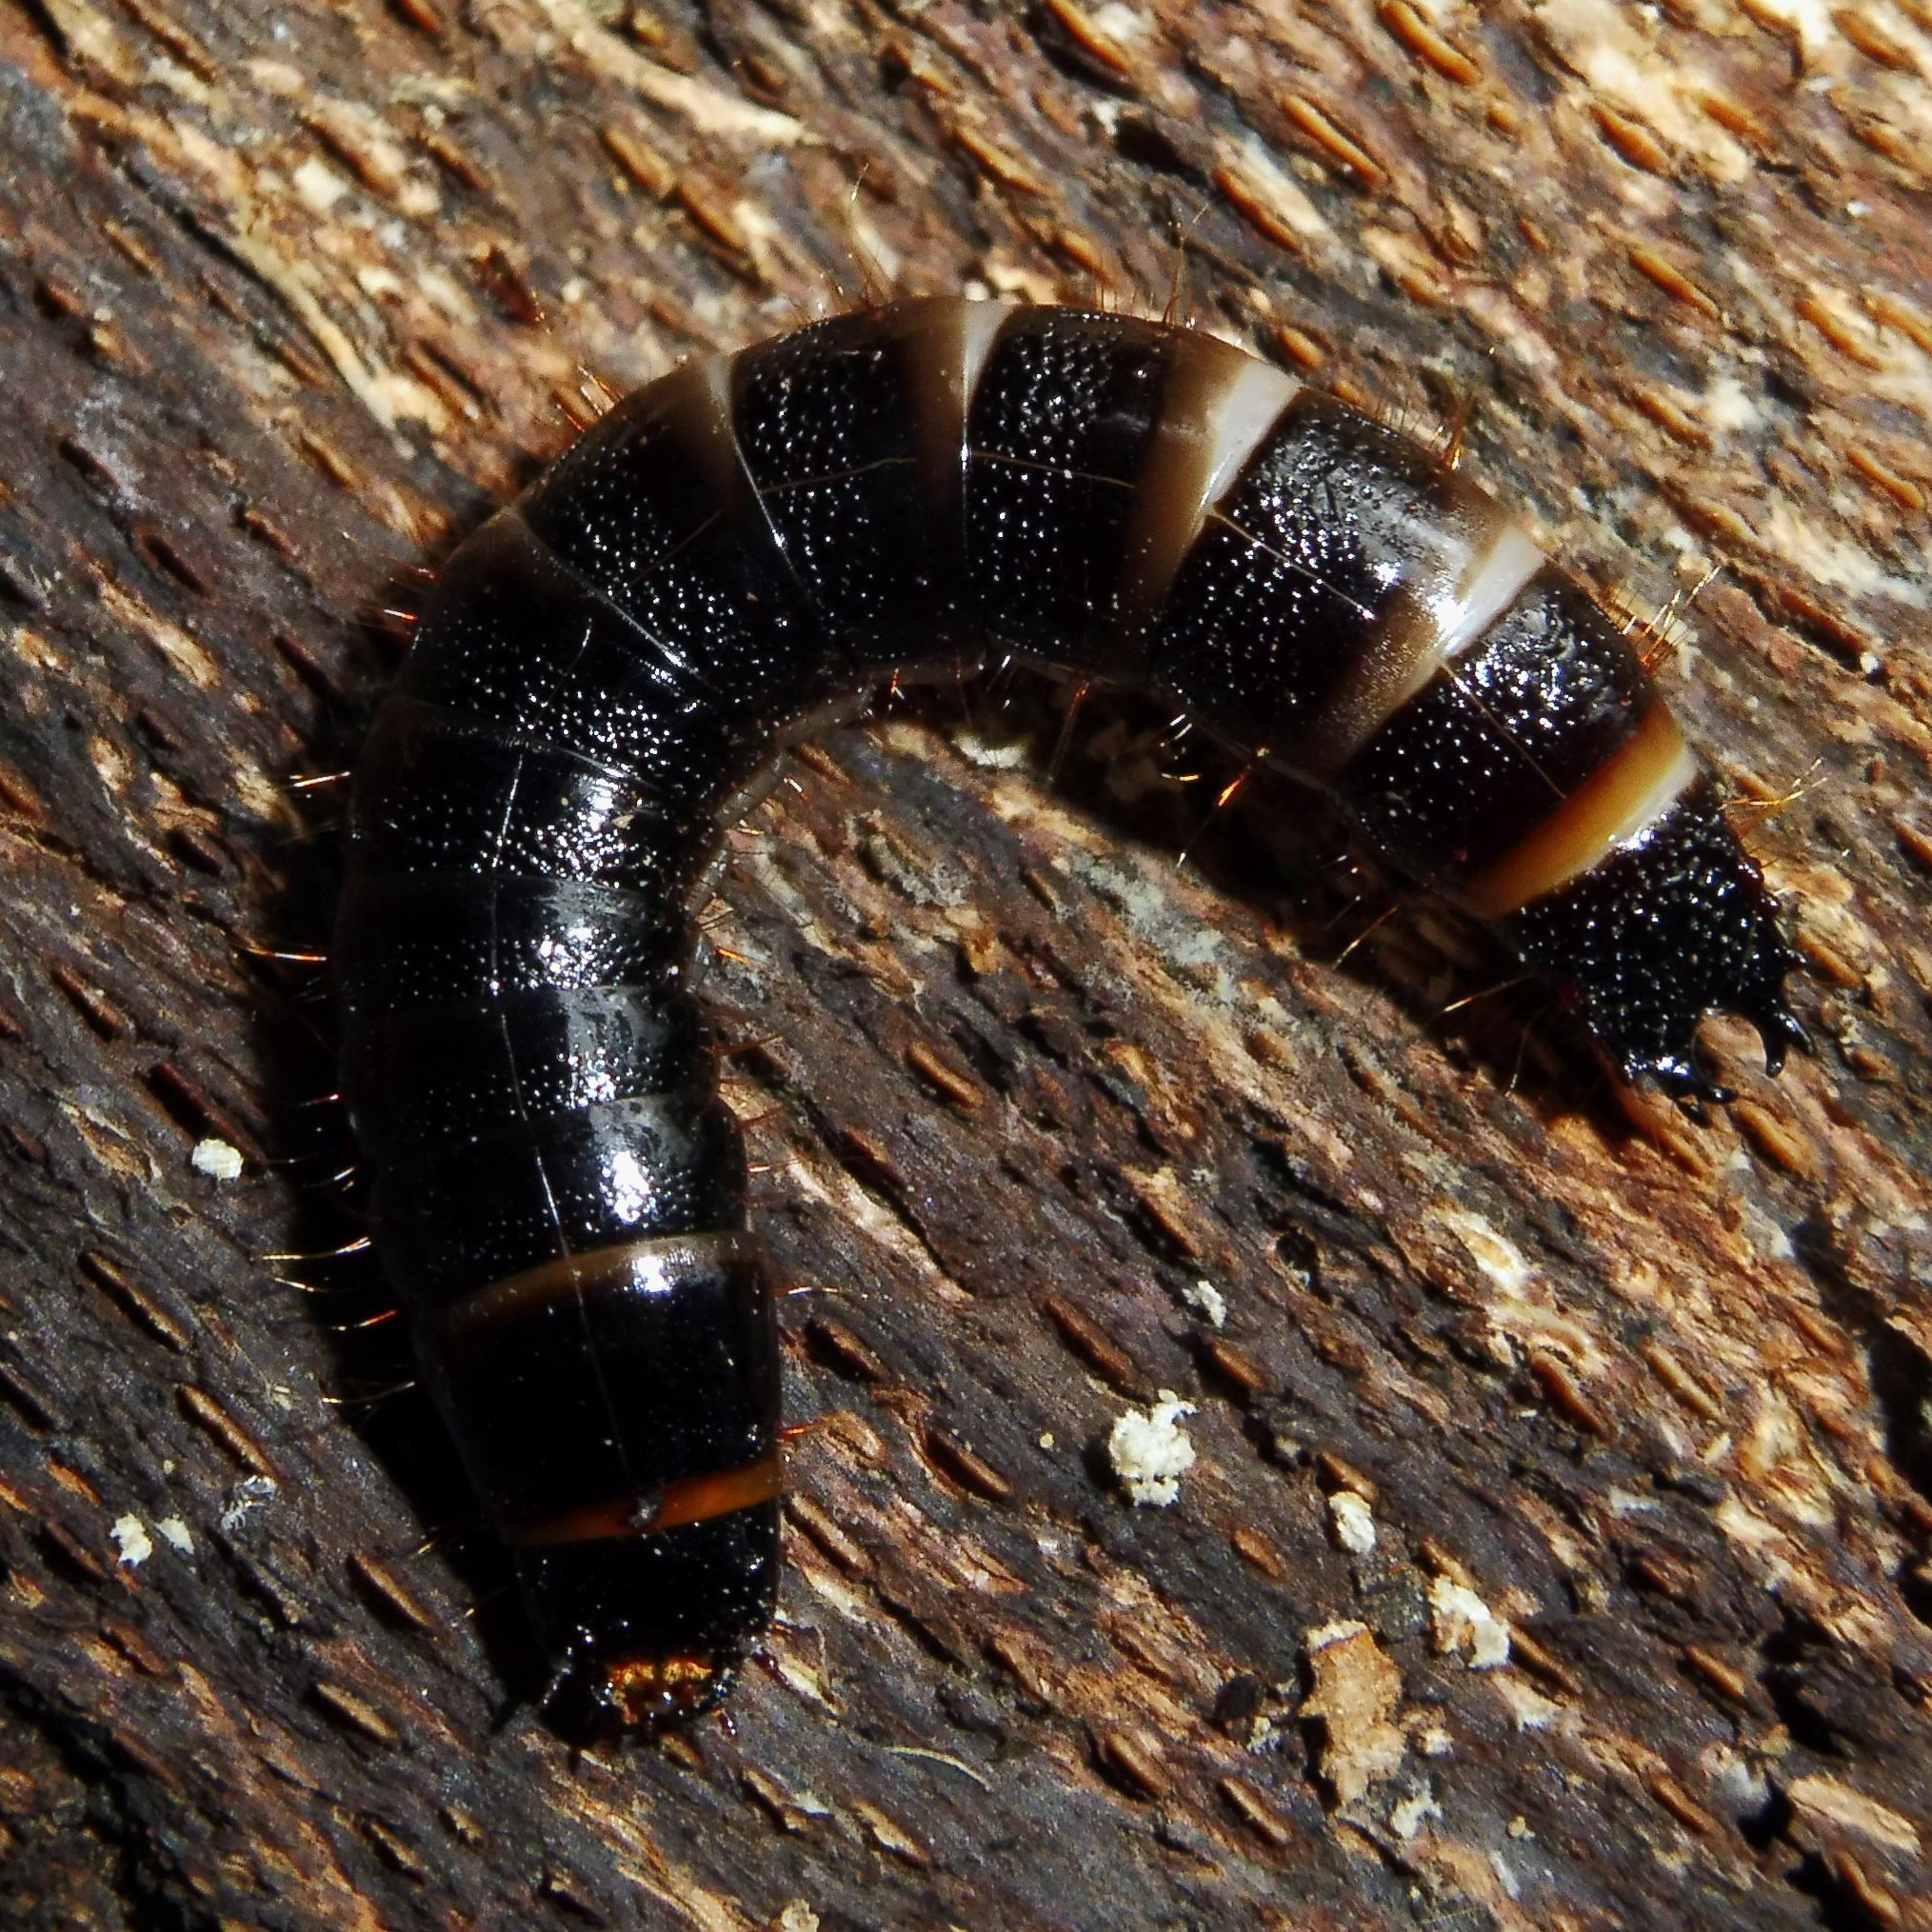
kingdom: Animalia
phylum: Arthropoda
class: Insecta
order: Coleoptera
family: Elateridae
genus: Stenagostus
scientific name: Stenagostus rhombeus
